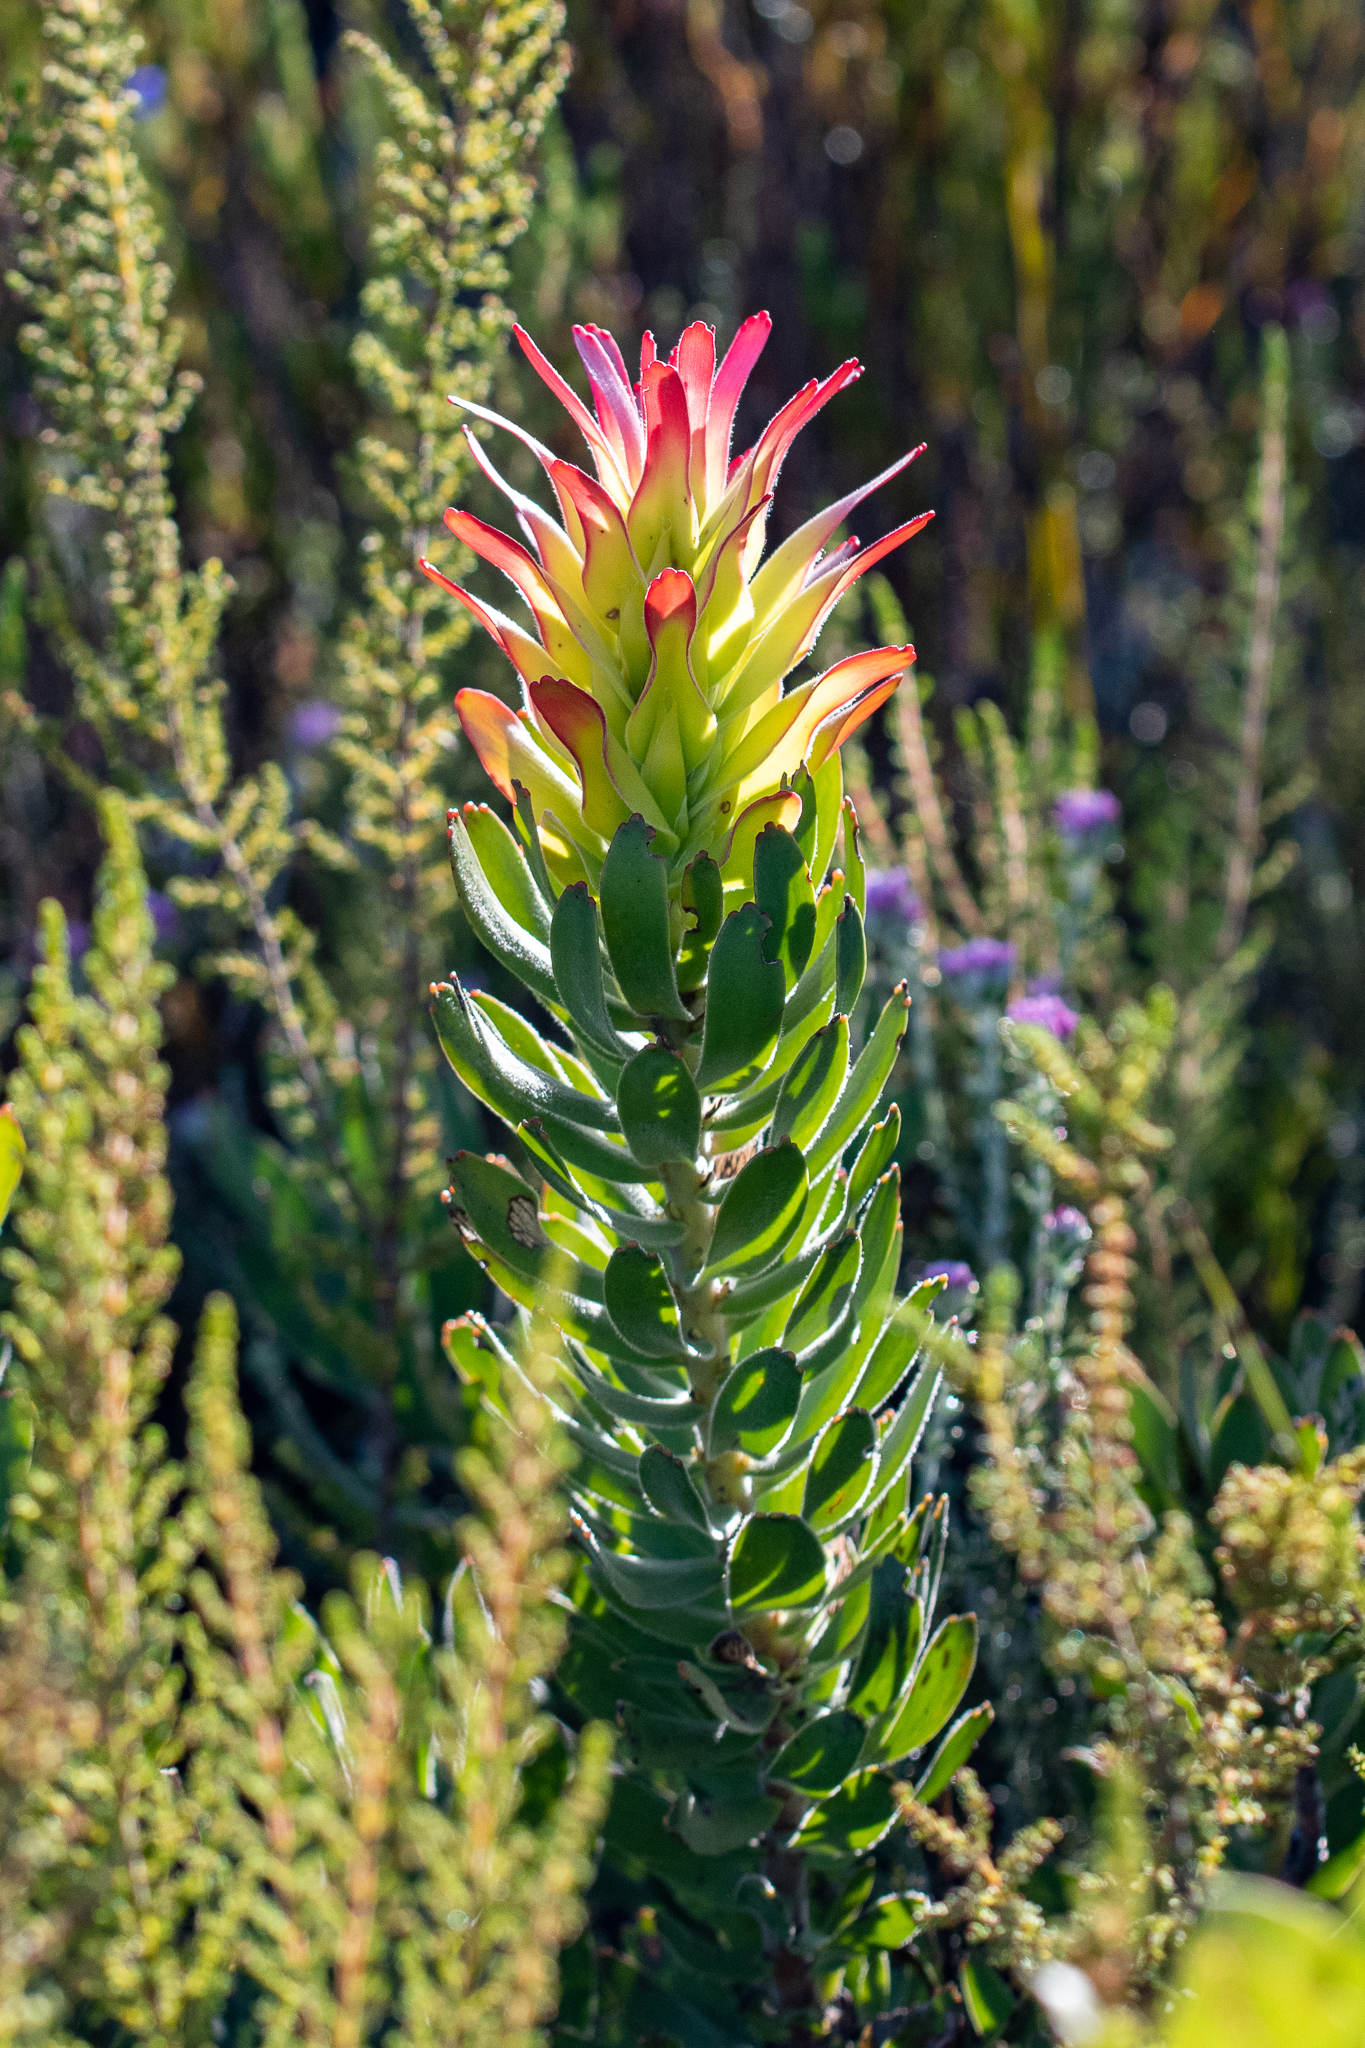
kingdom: Plantae
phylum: Tracheophyta
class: Magnoliopsida
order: Proteales
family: Proteaceae
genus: Mimetes
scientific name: Mimetes cucullatus
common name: Common pagoda
